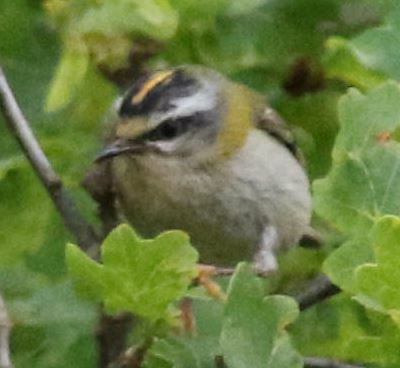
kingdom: Animalia
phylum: Chordata
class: Aves
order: Passeriformes
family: Regulidae
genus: Regulus
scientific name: Regulus ignicapilla
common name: Firecrest
